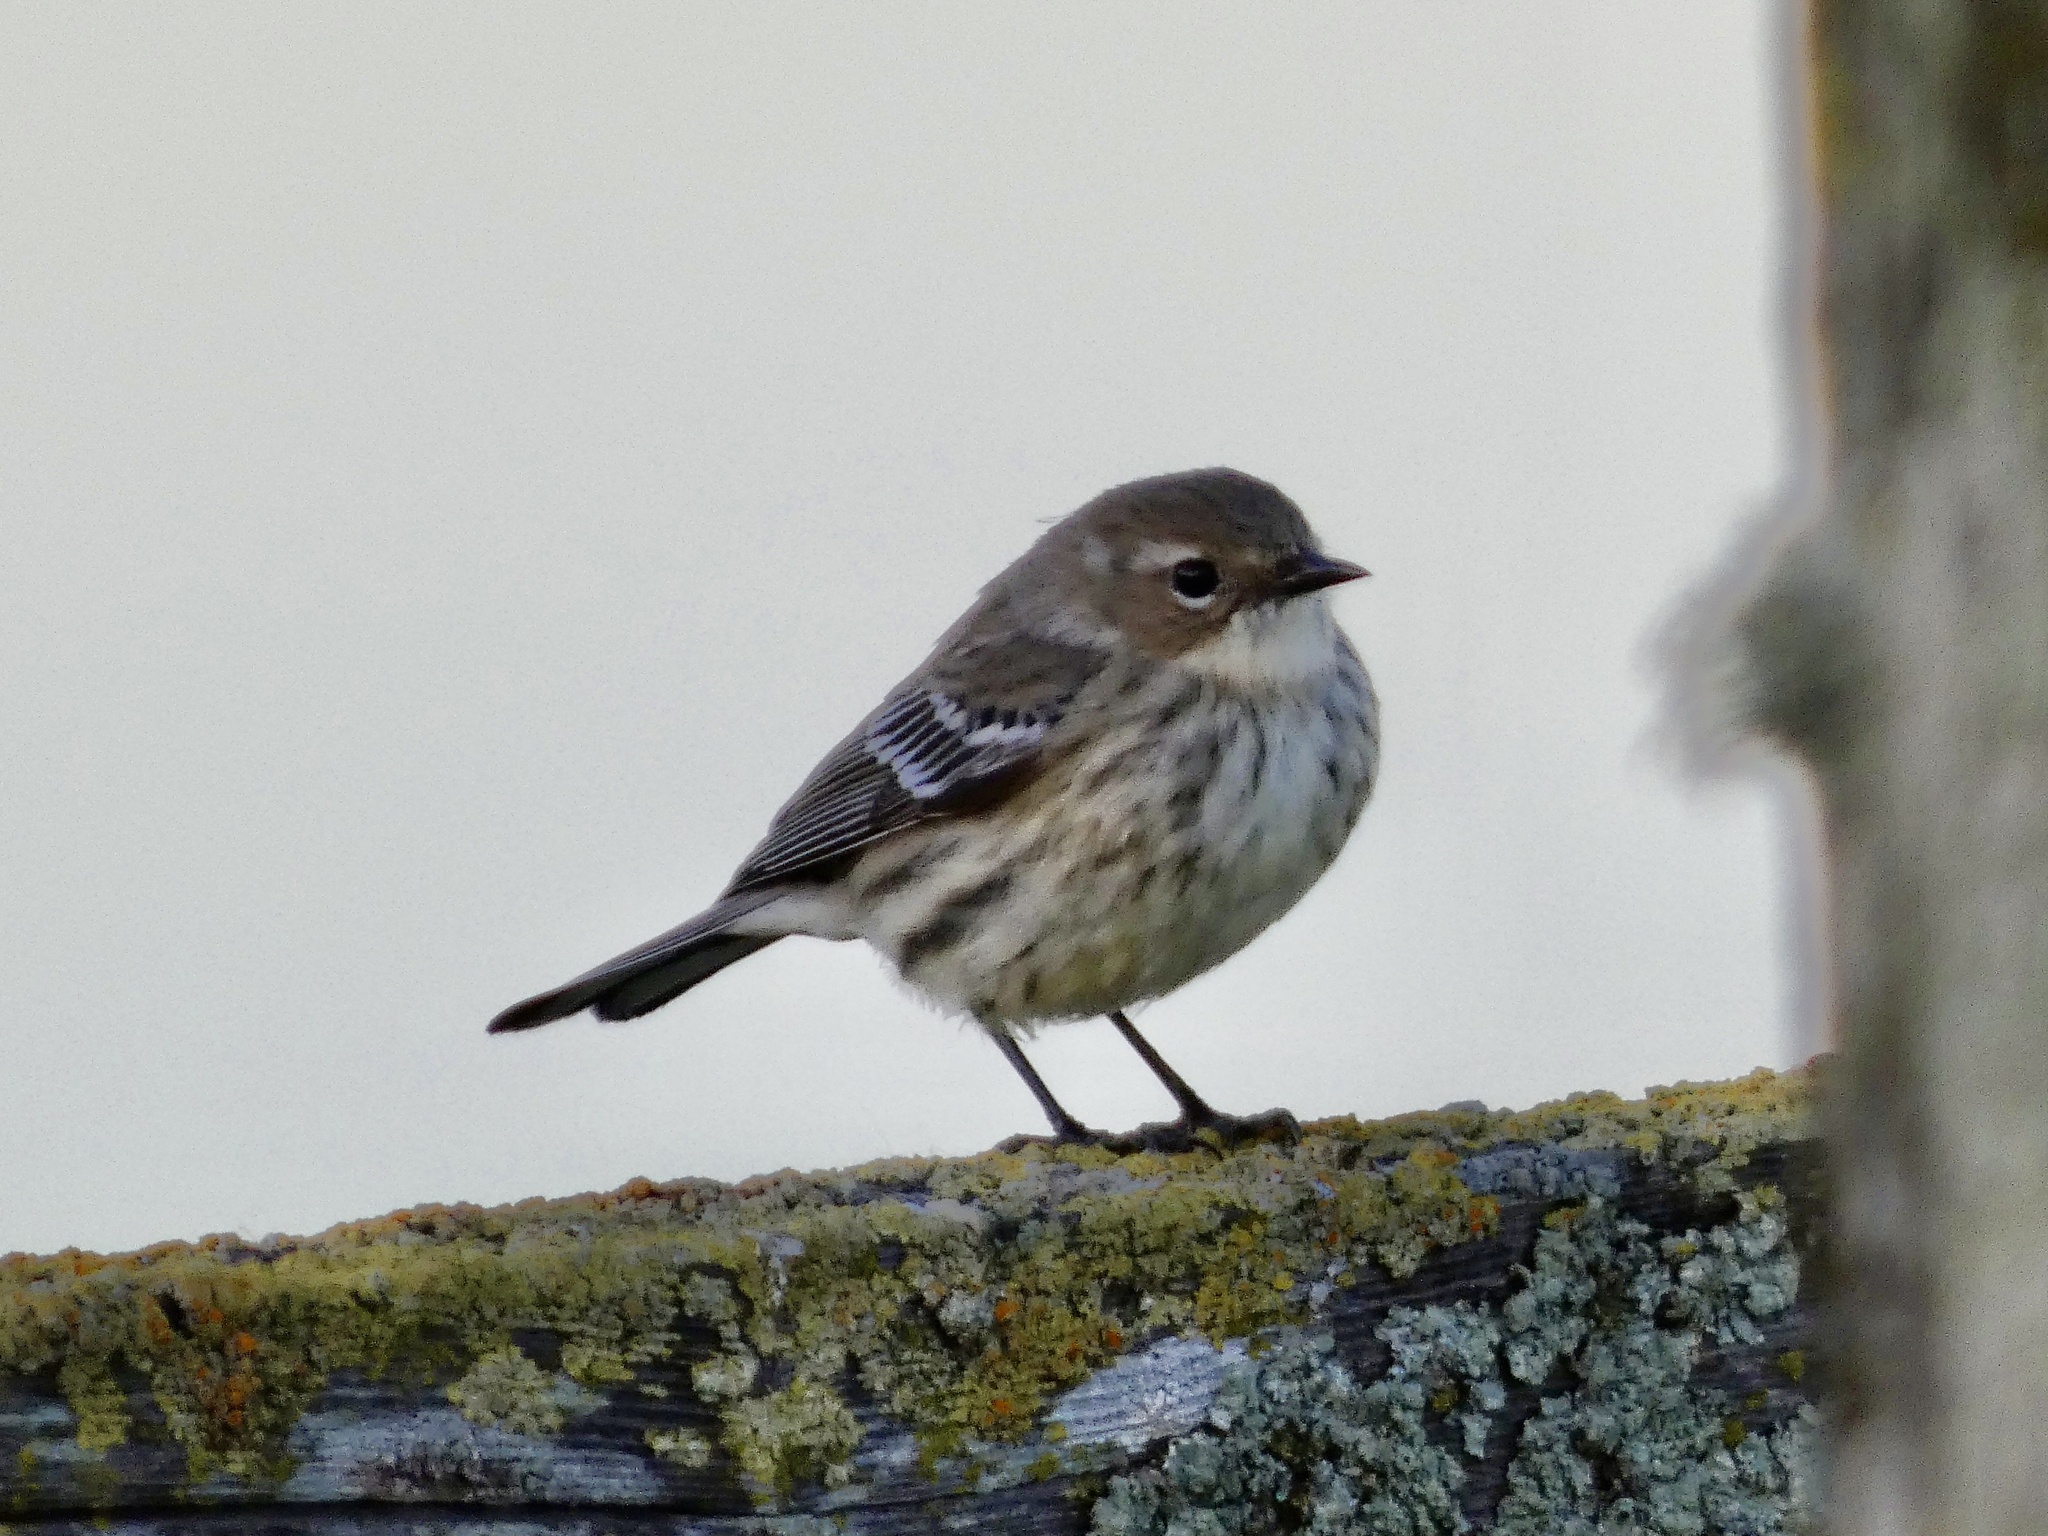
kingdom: Animalia
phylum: Chordata
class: Aves
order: Passeriformes
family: Parulidae
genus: Setophaga
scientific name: Setophaga coronata
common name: Myrtle warbler
